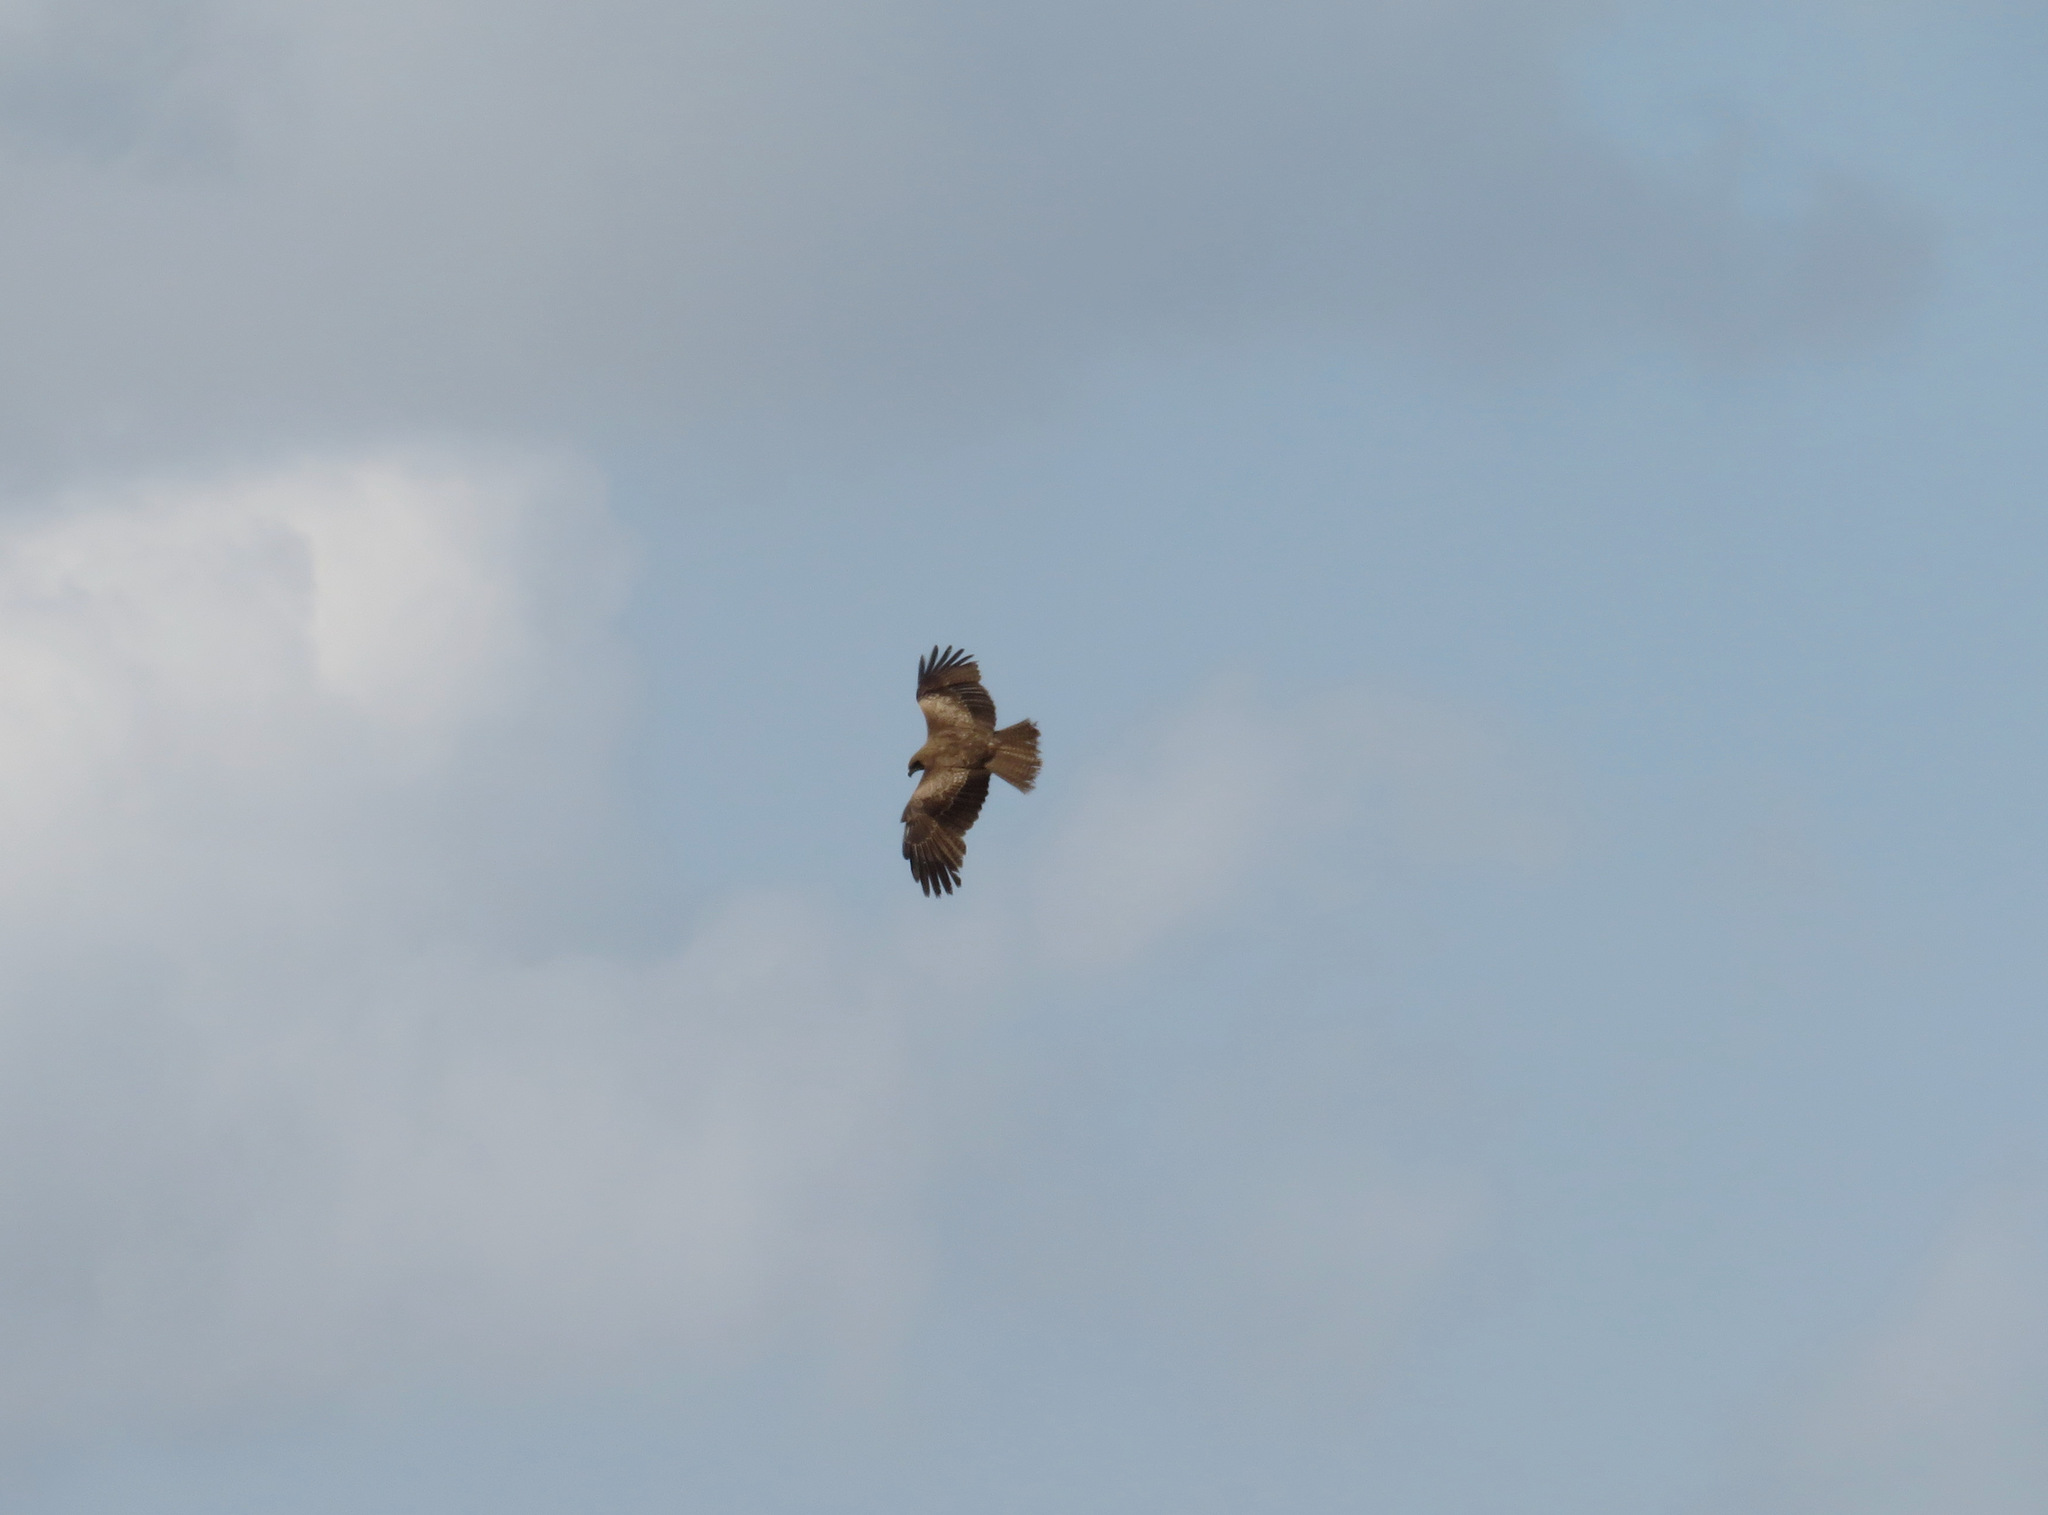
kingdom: Animalia
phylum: Chordata
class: Aves
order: Accipitriformes
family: Accipitridae
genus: Milvus
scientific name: Milvus migrans
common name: Black kite
